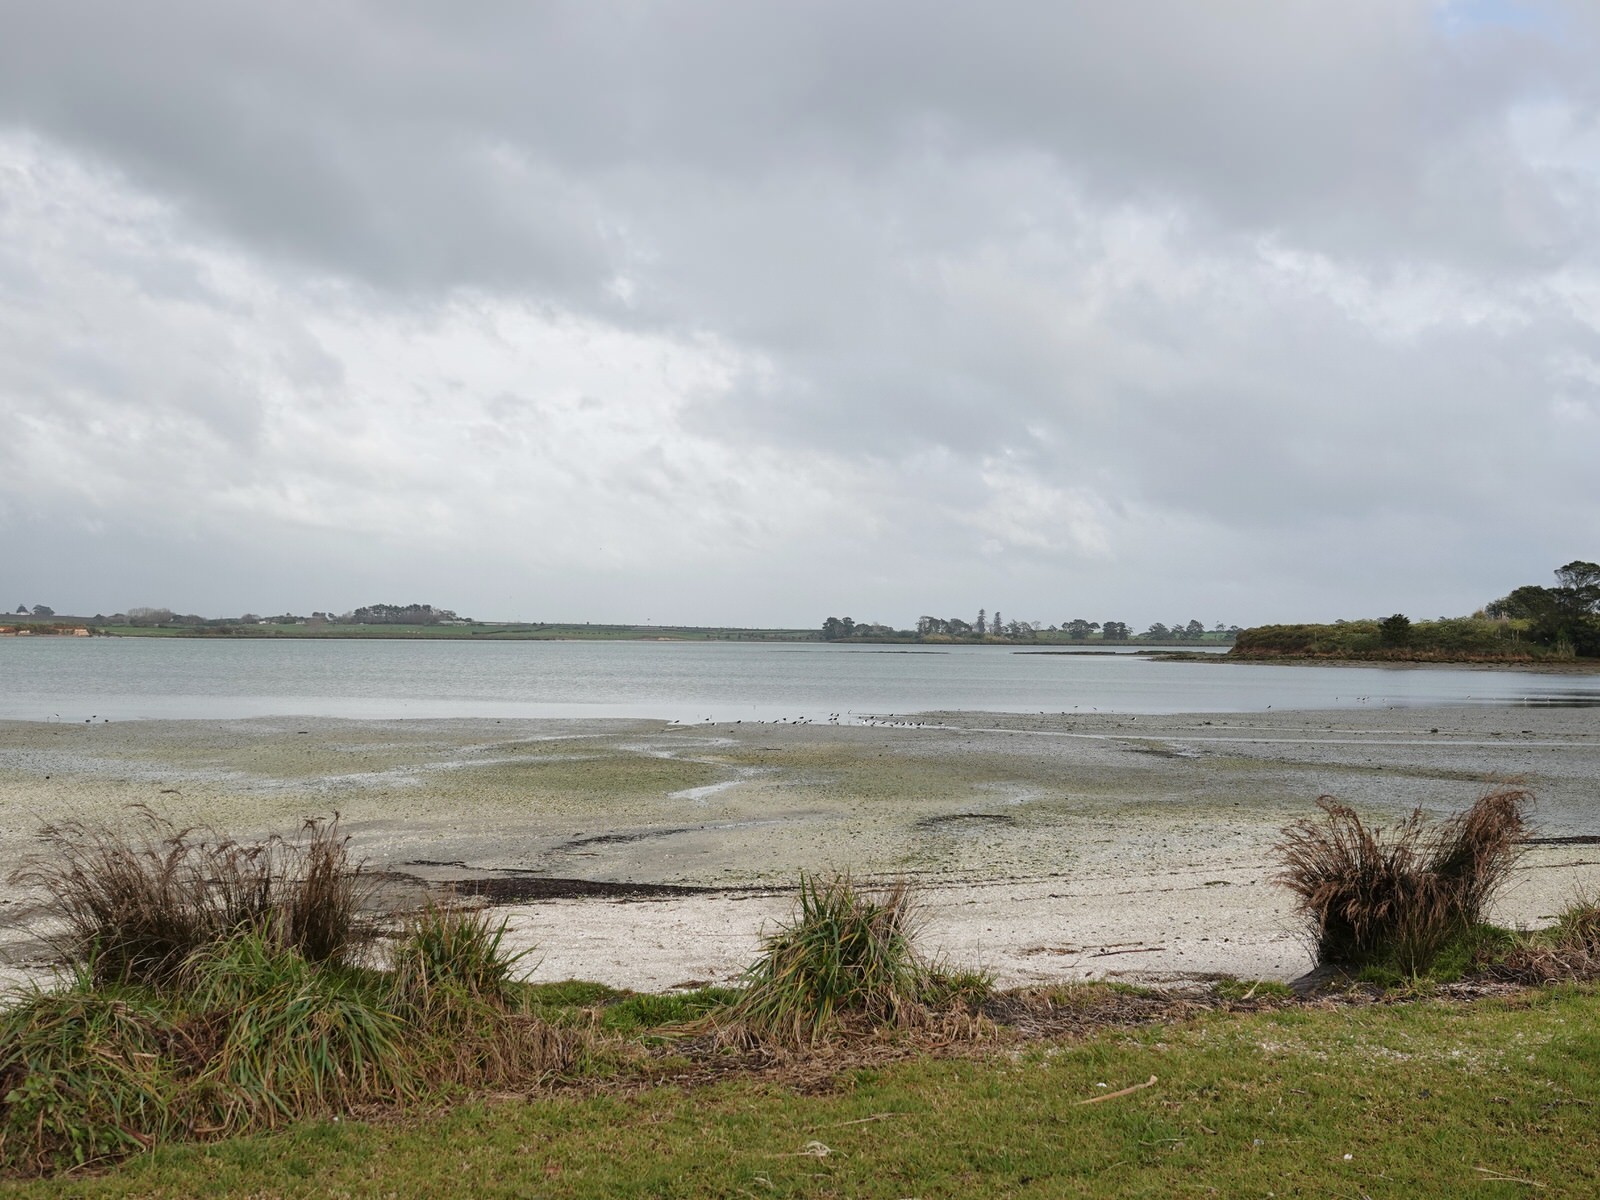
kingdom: Animalia
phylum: Chordata
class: Aves
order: Charadriiformes
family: Recurvirostridae
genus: Himantopus
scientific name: Himantopus leucocephalus
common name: White-headed stilt
